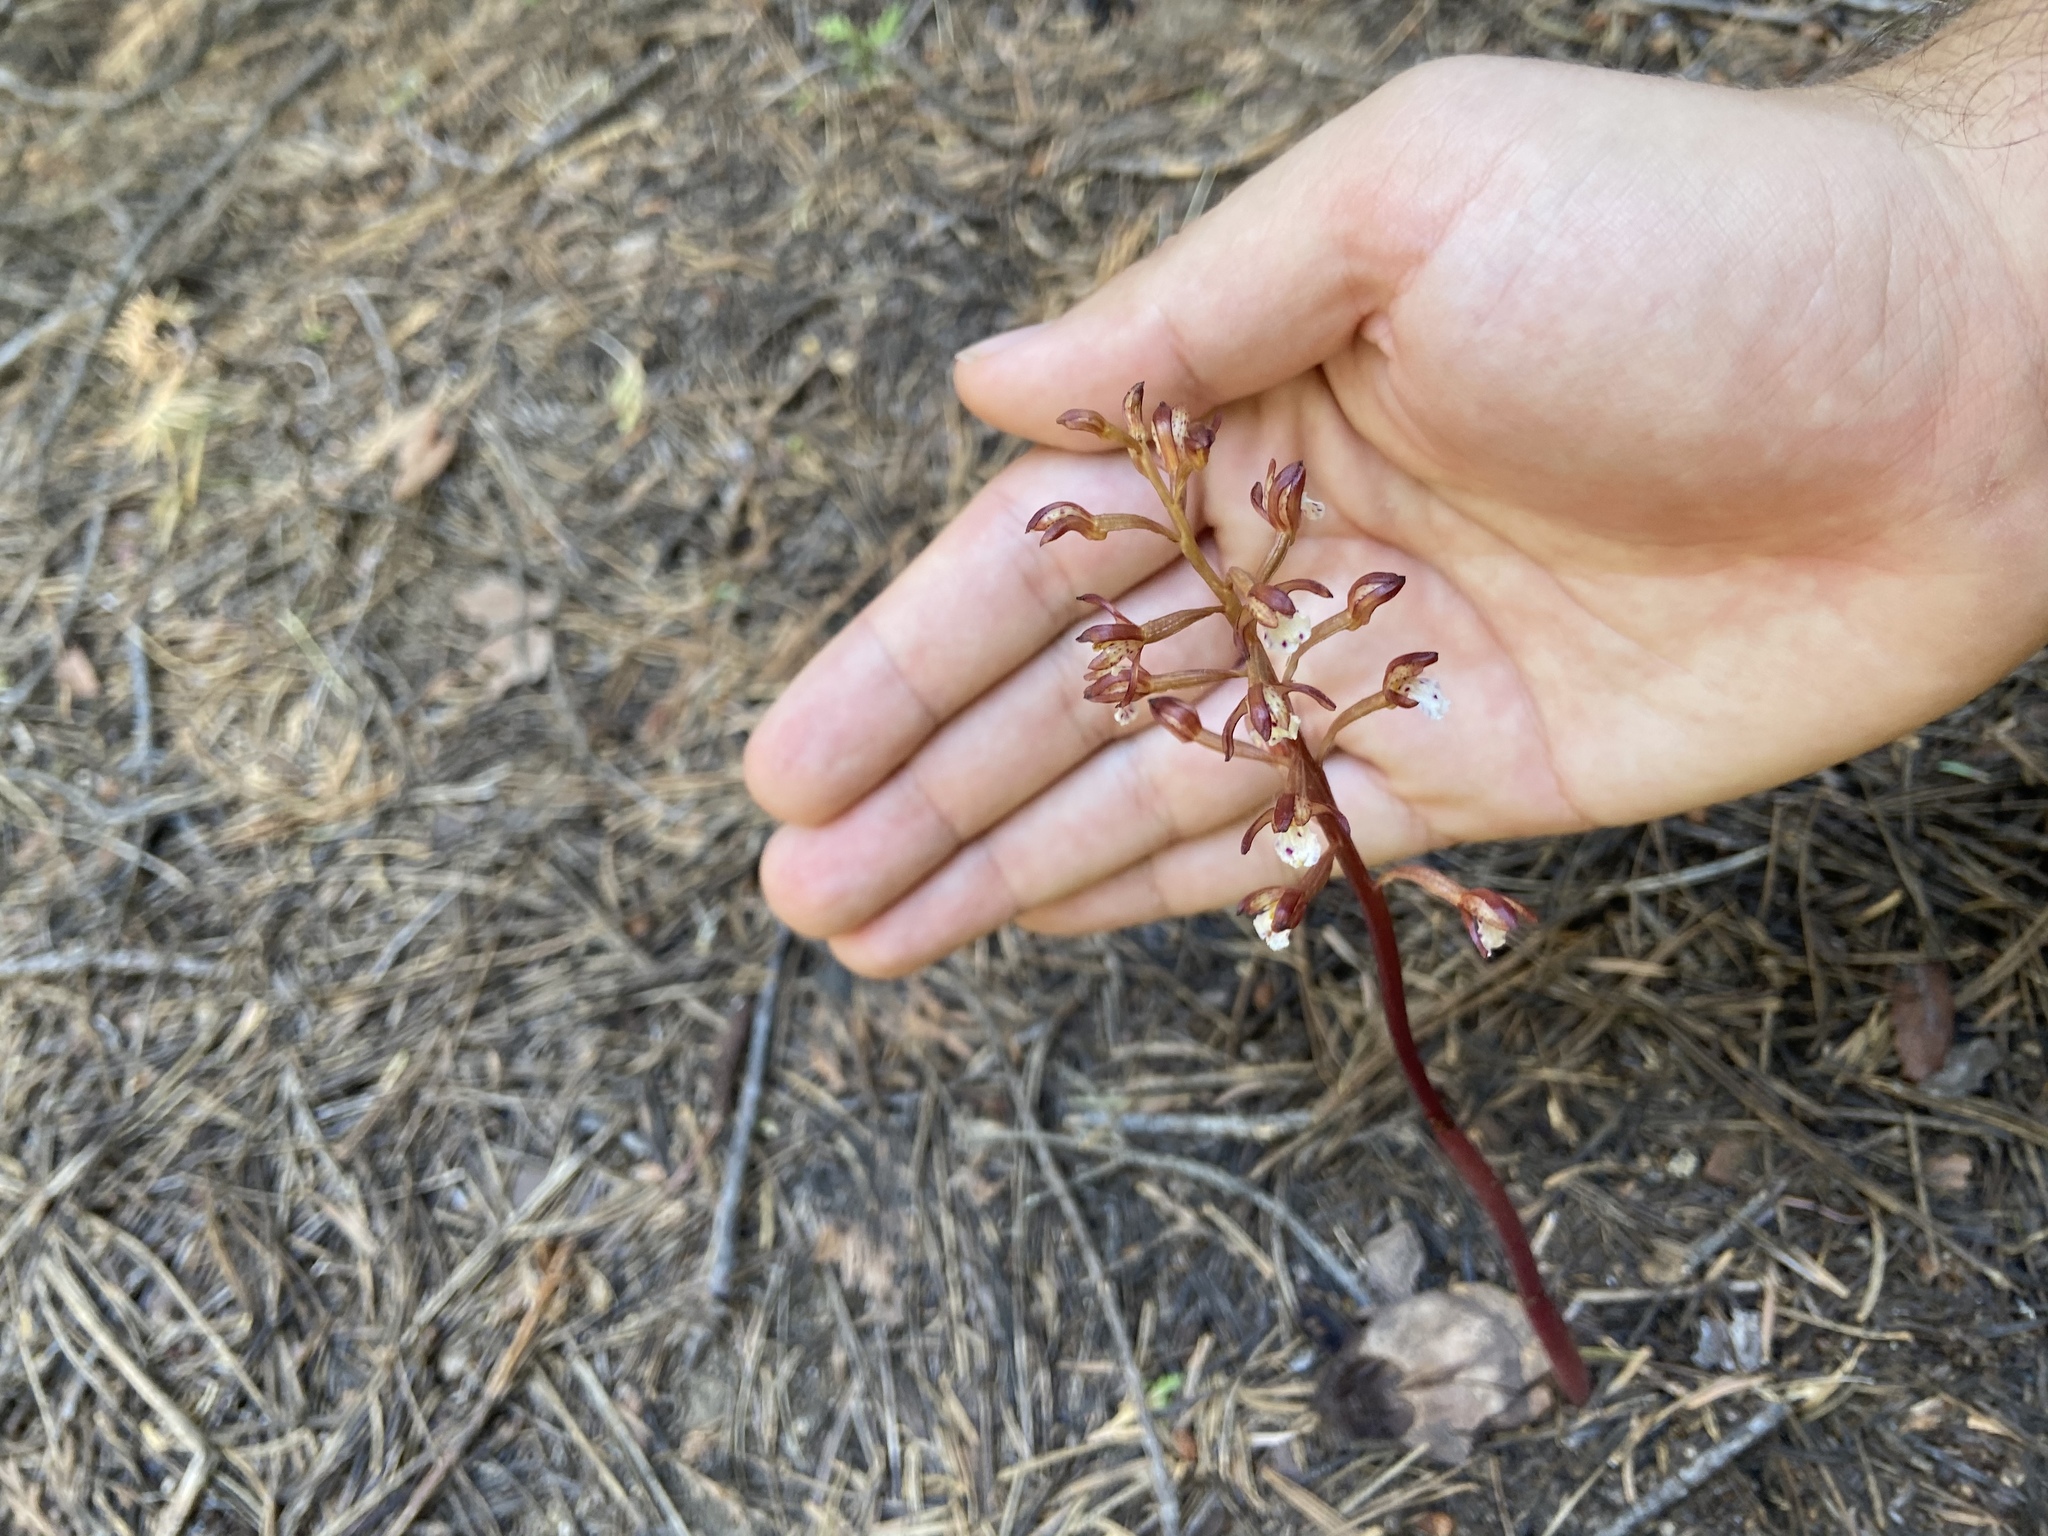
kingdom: Plantae
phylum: Tracheophyta
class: Liliopsida
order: Asparagales
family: Orchidaceae
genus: Corallorhiza
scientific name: Corallorhiza maculata
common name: Spotted coralroot
